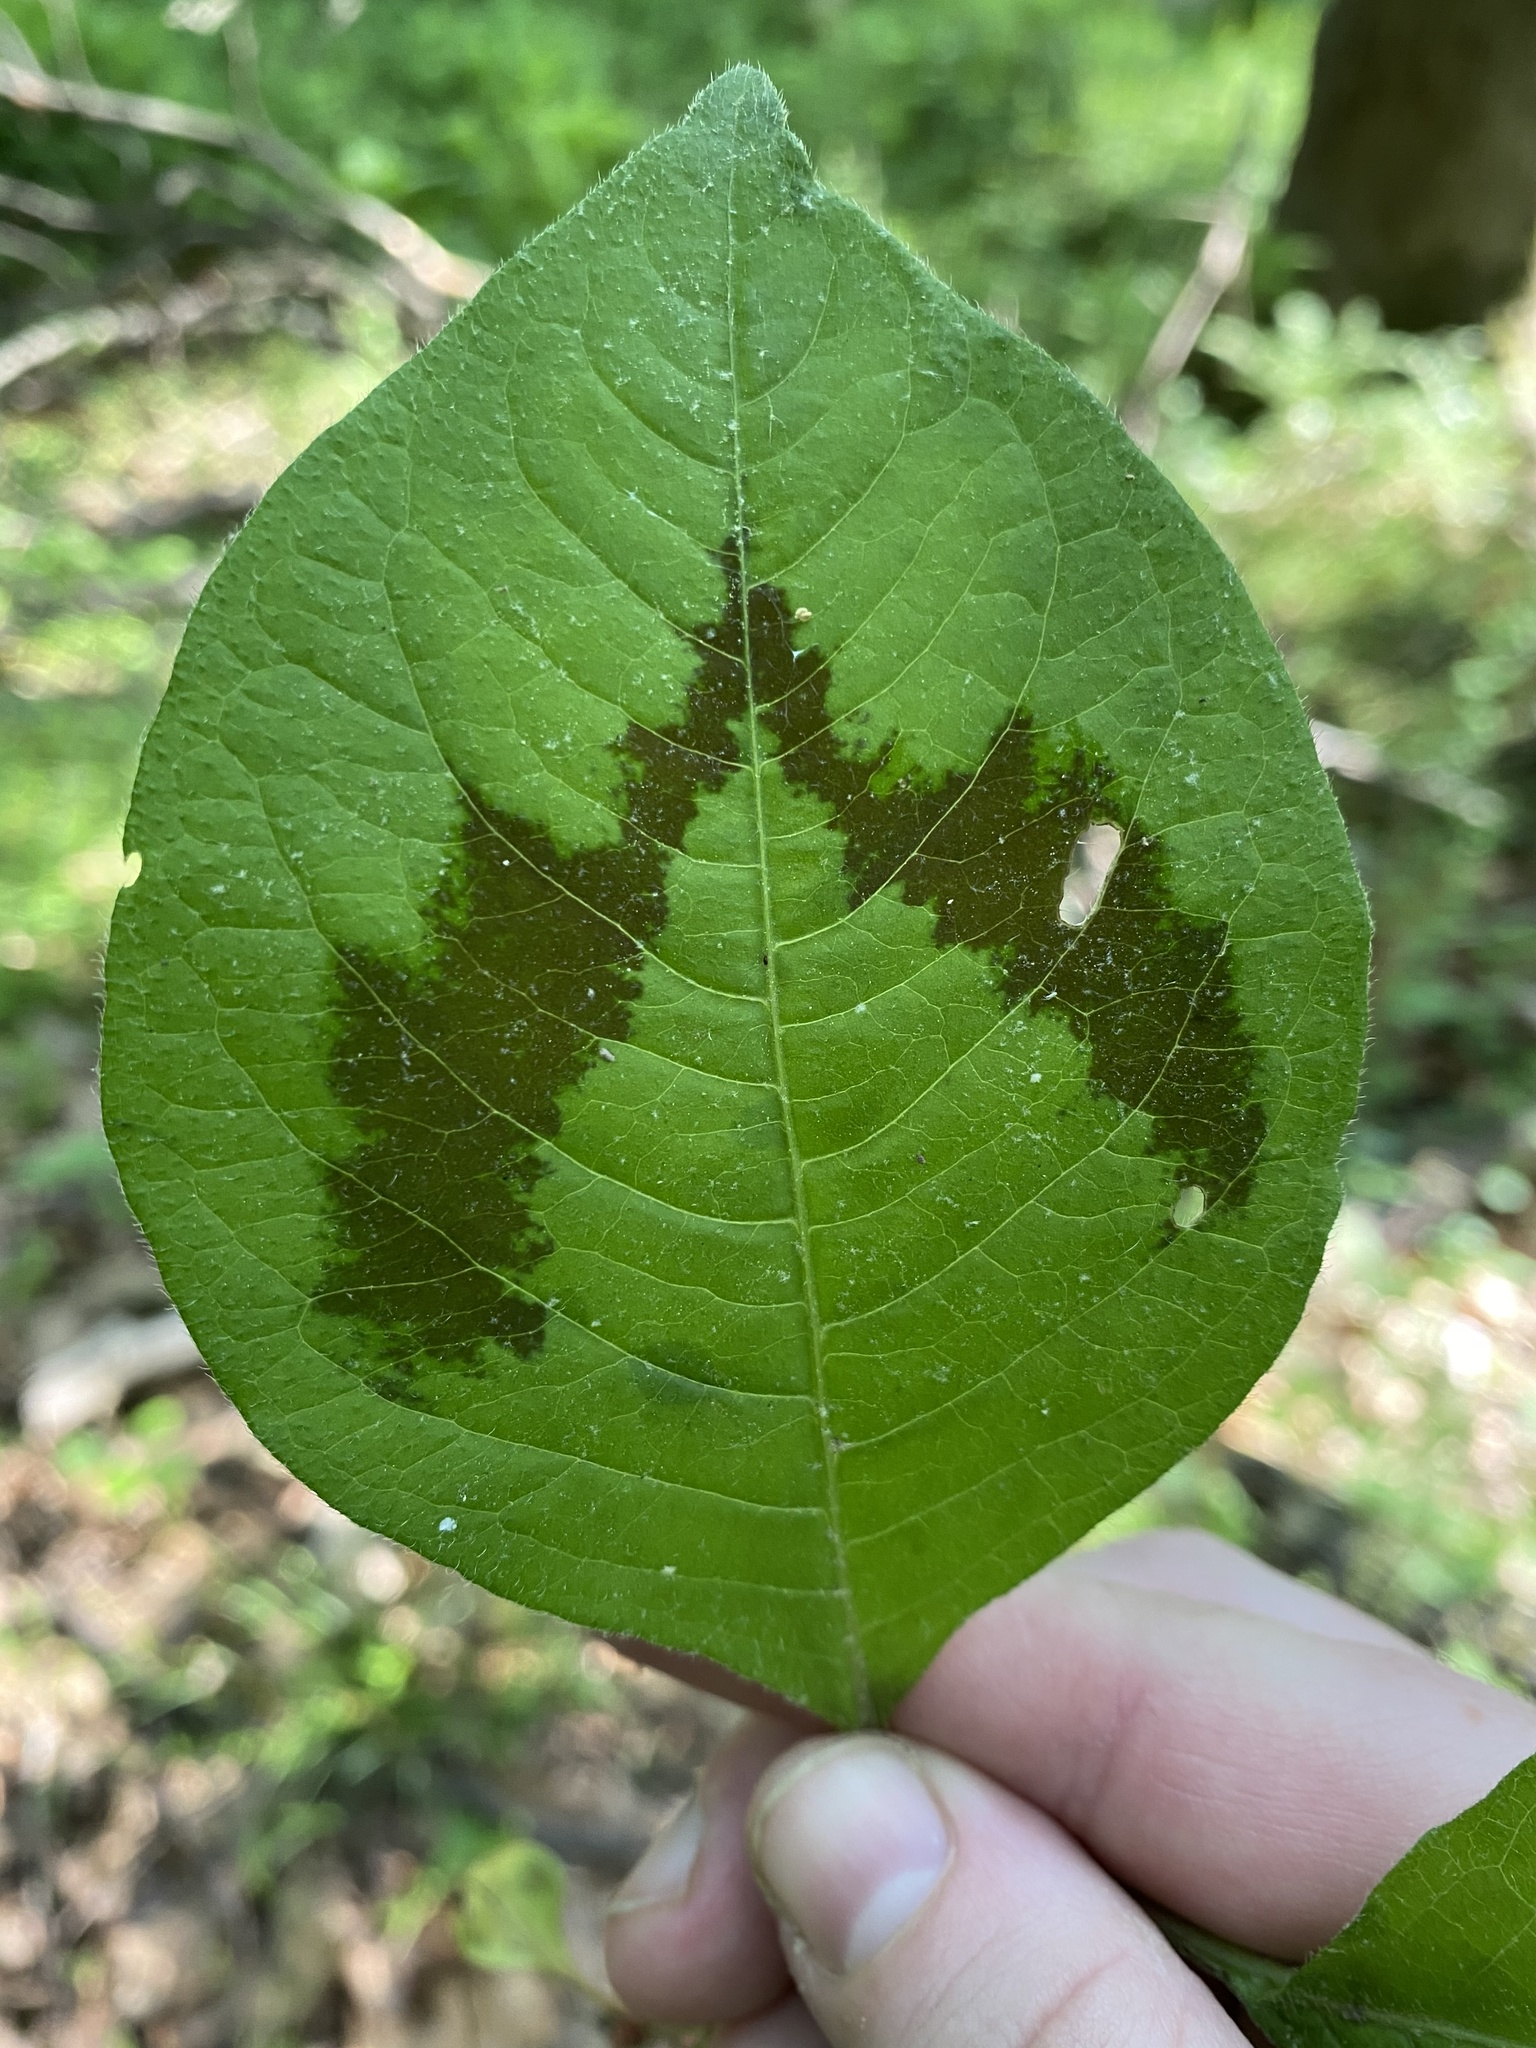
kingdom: Plantae
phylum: Tracheophyta
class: Magnoliopsida
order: Caryophyllales
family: Polygonaceae
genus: Persicaria
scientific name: Persicaria filiformis
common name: Asian jumpseed
